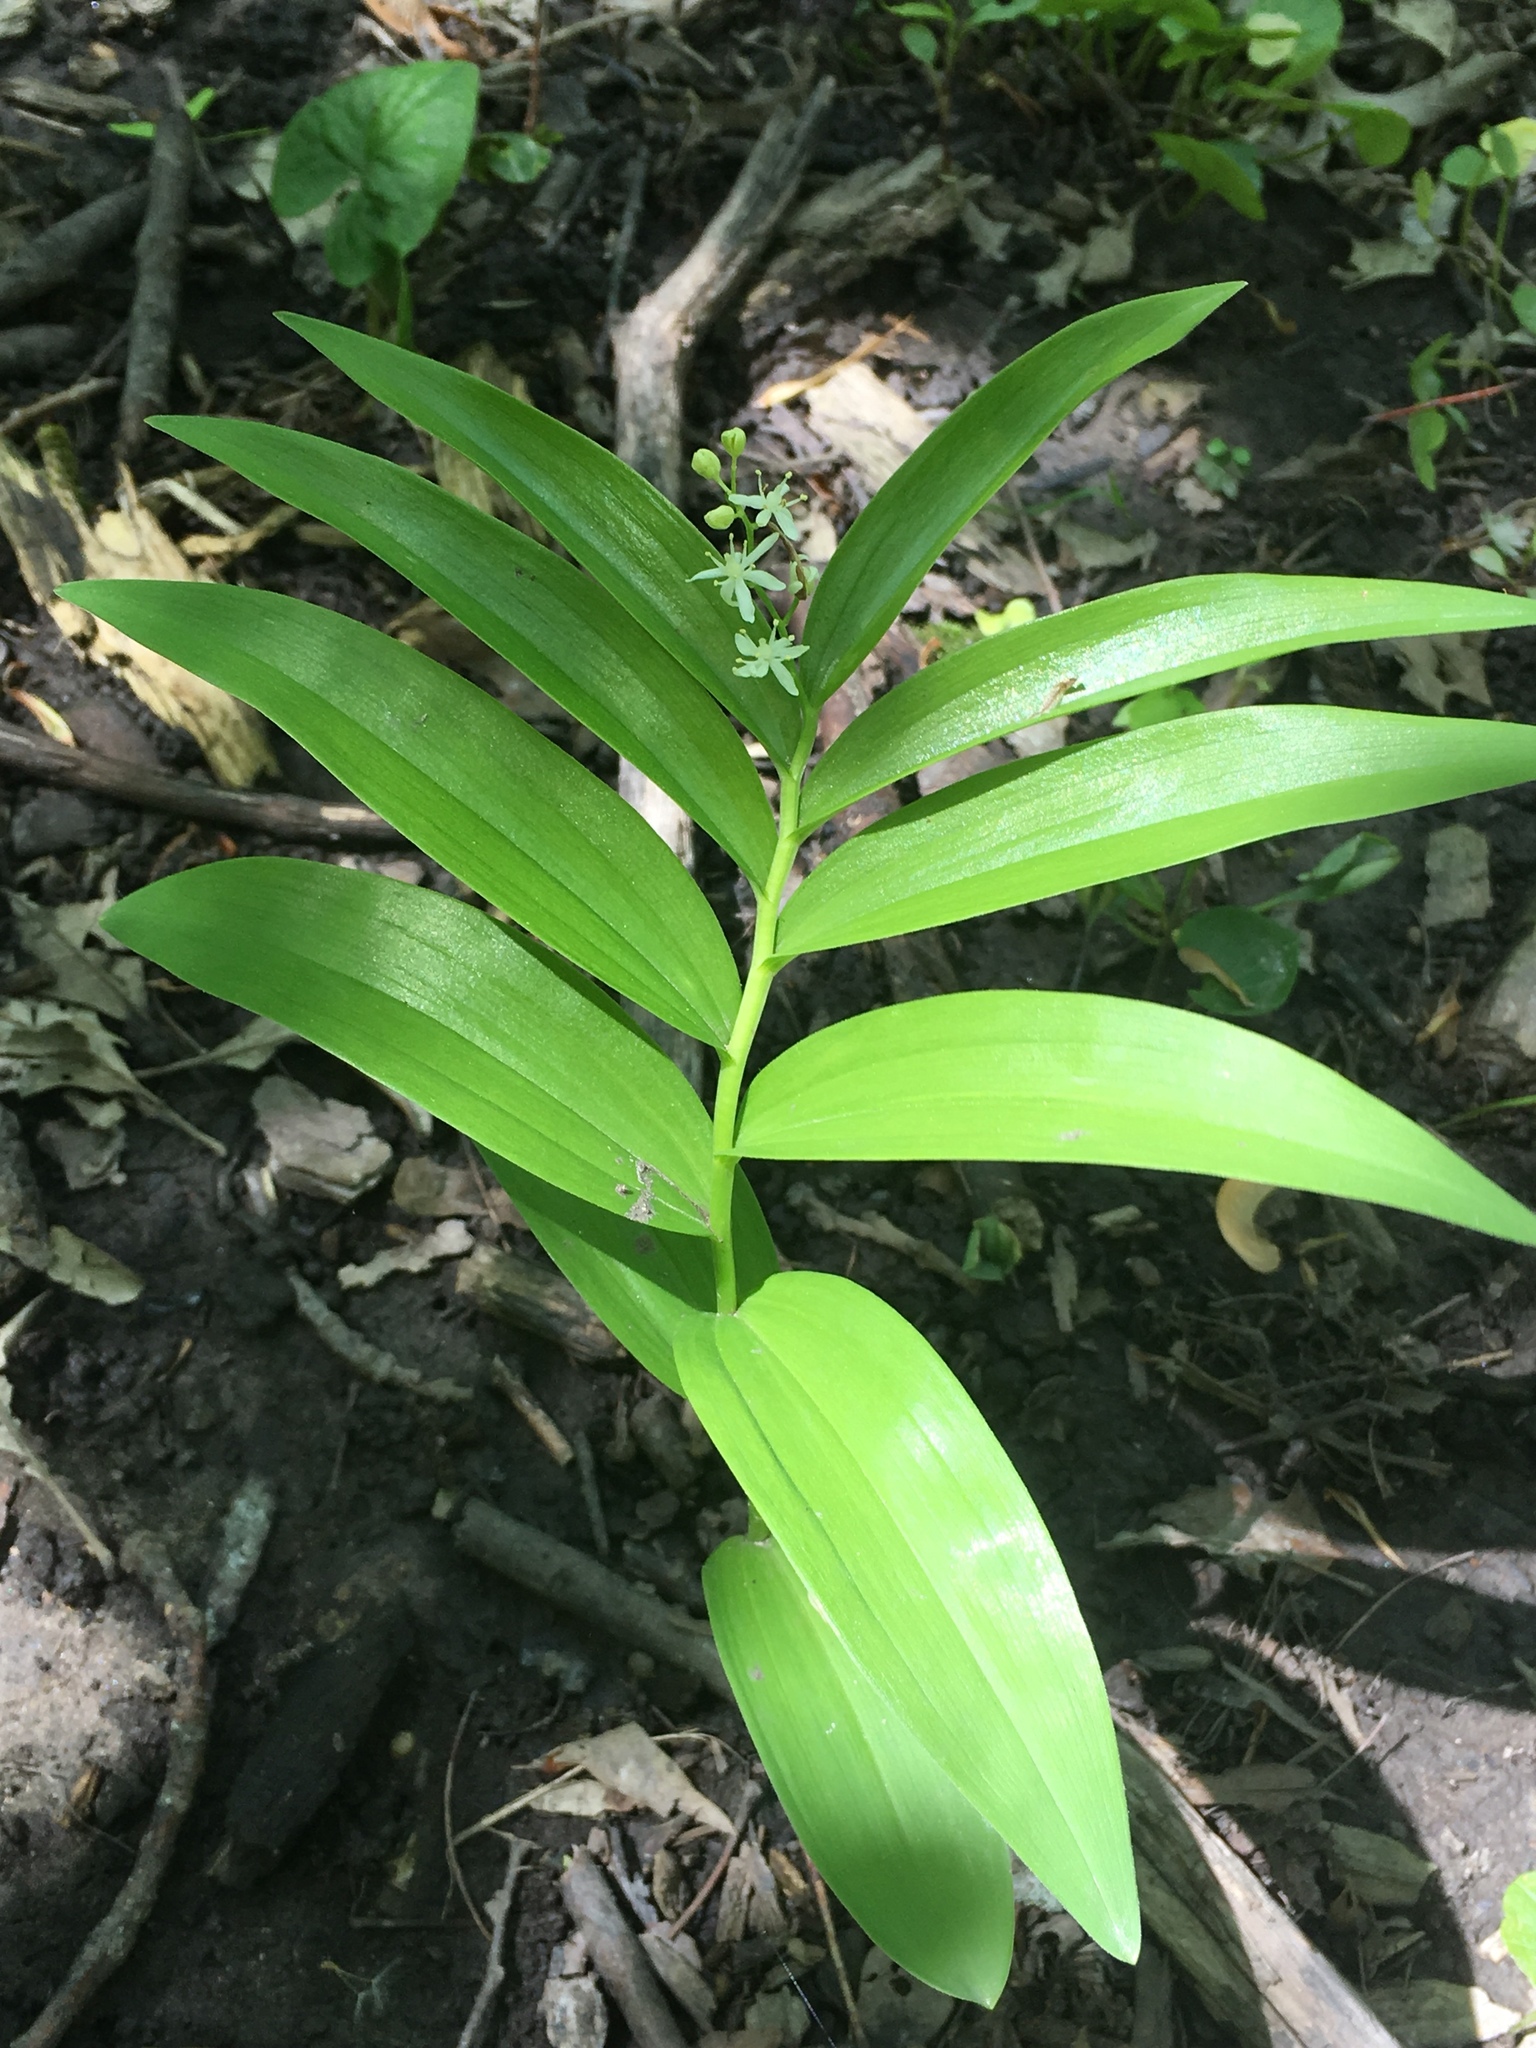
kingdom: Plantae
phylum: Tracheophyta
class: Liliopsida
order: Asparagales
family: Asparagaceae
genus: Maianthemum
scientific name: Maianthemum stellatum
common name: Little false solomon's seal
